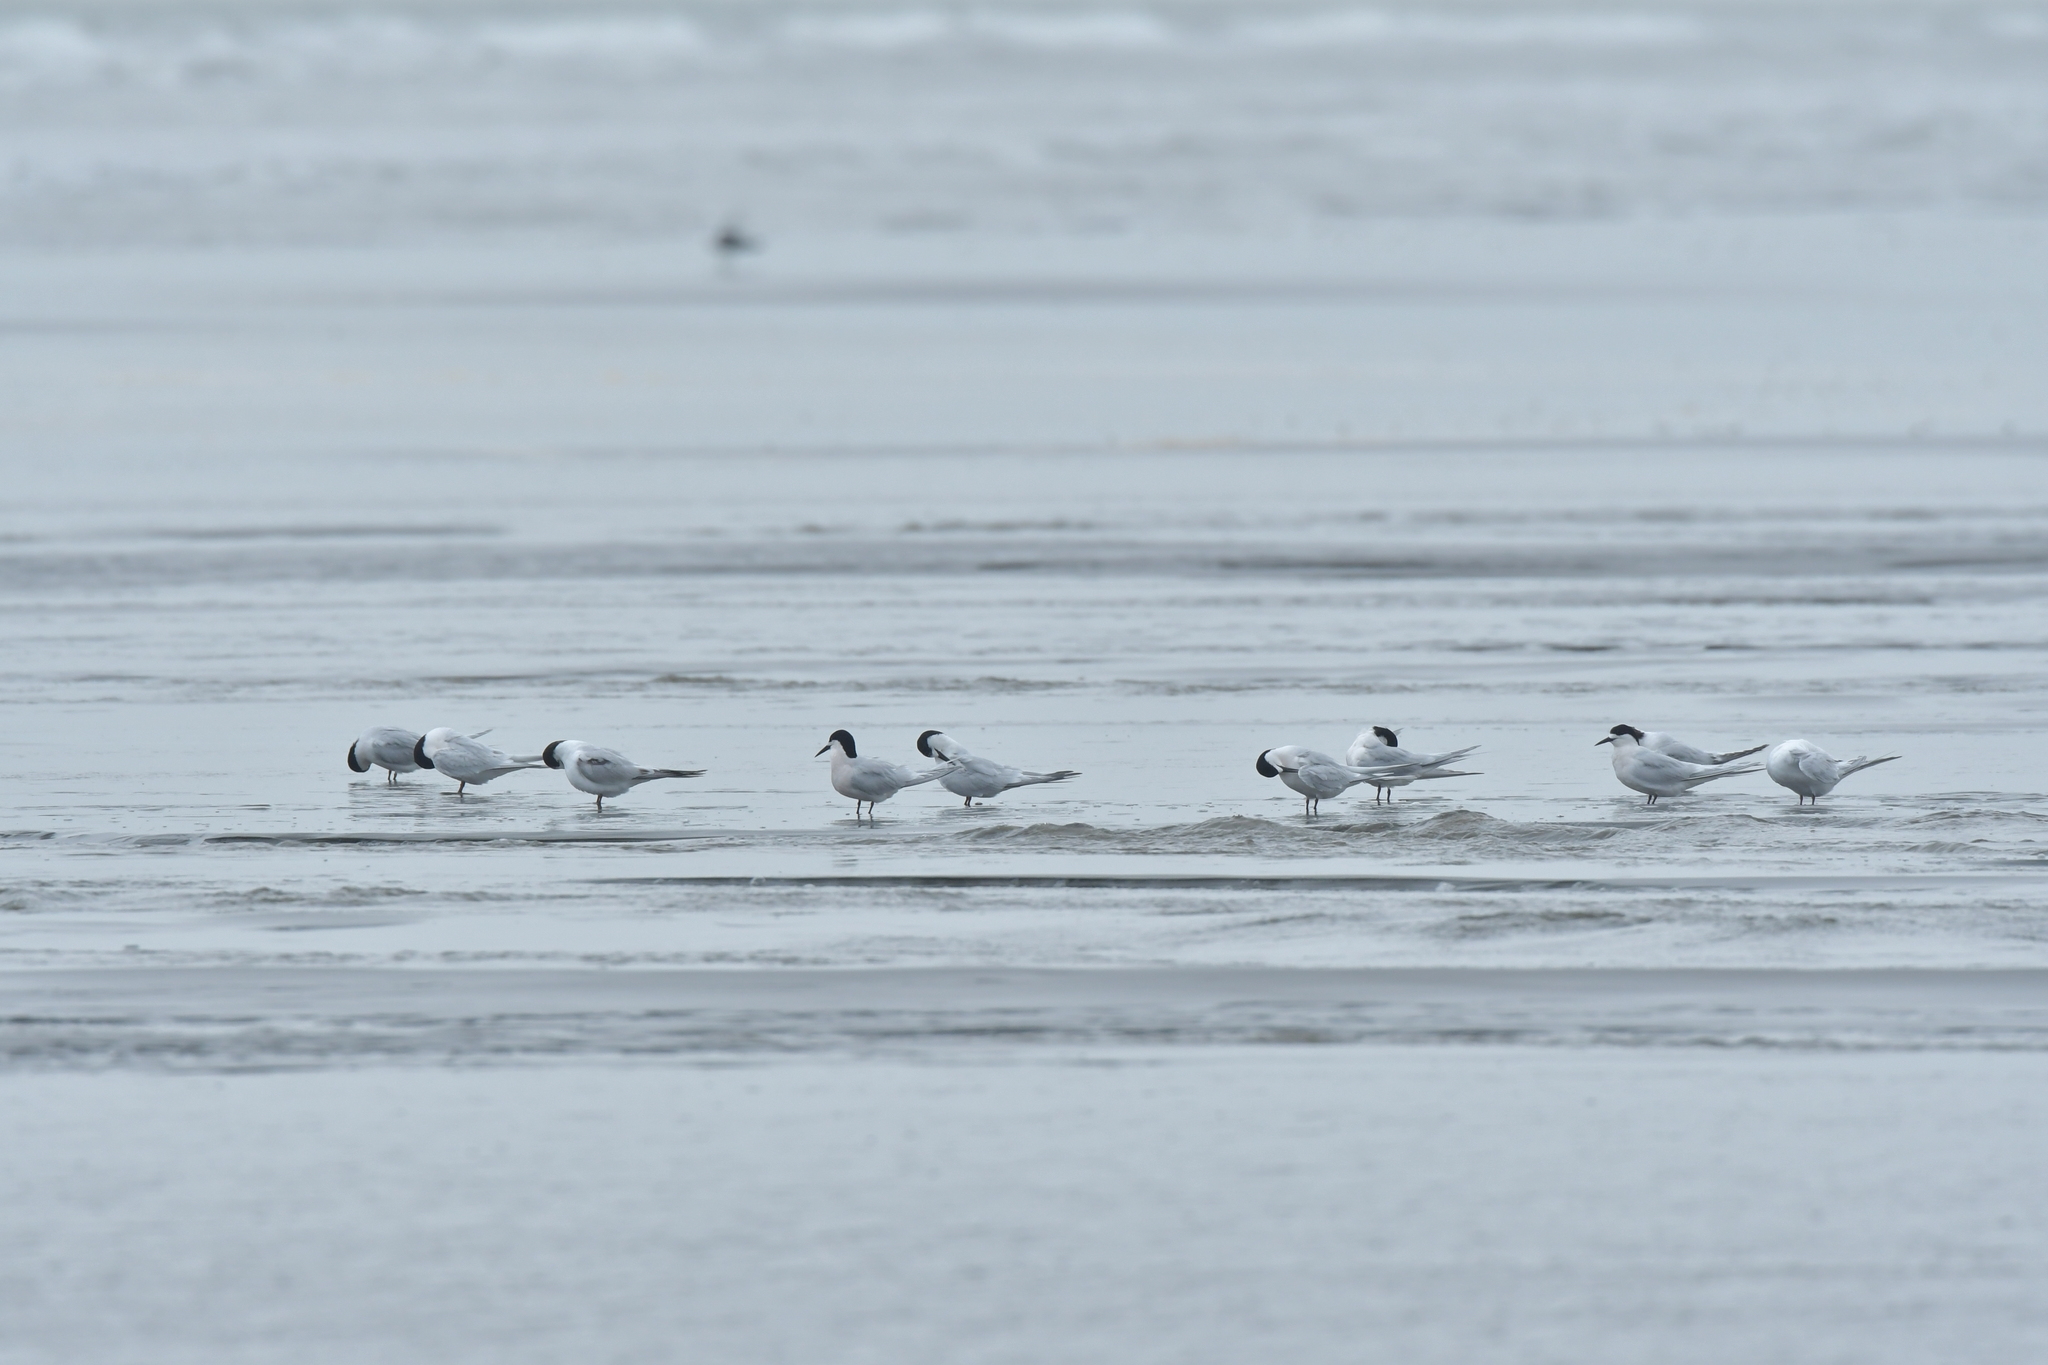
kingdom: Animalia
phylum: Chordata
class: Aves
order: Charadriiformes
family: Laridae
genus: Sterna
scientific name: Sterna striata
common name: White-fronted tern
